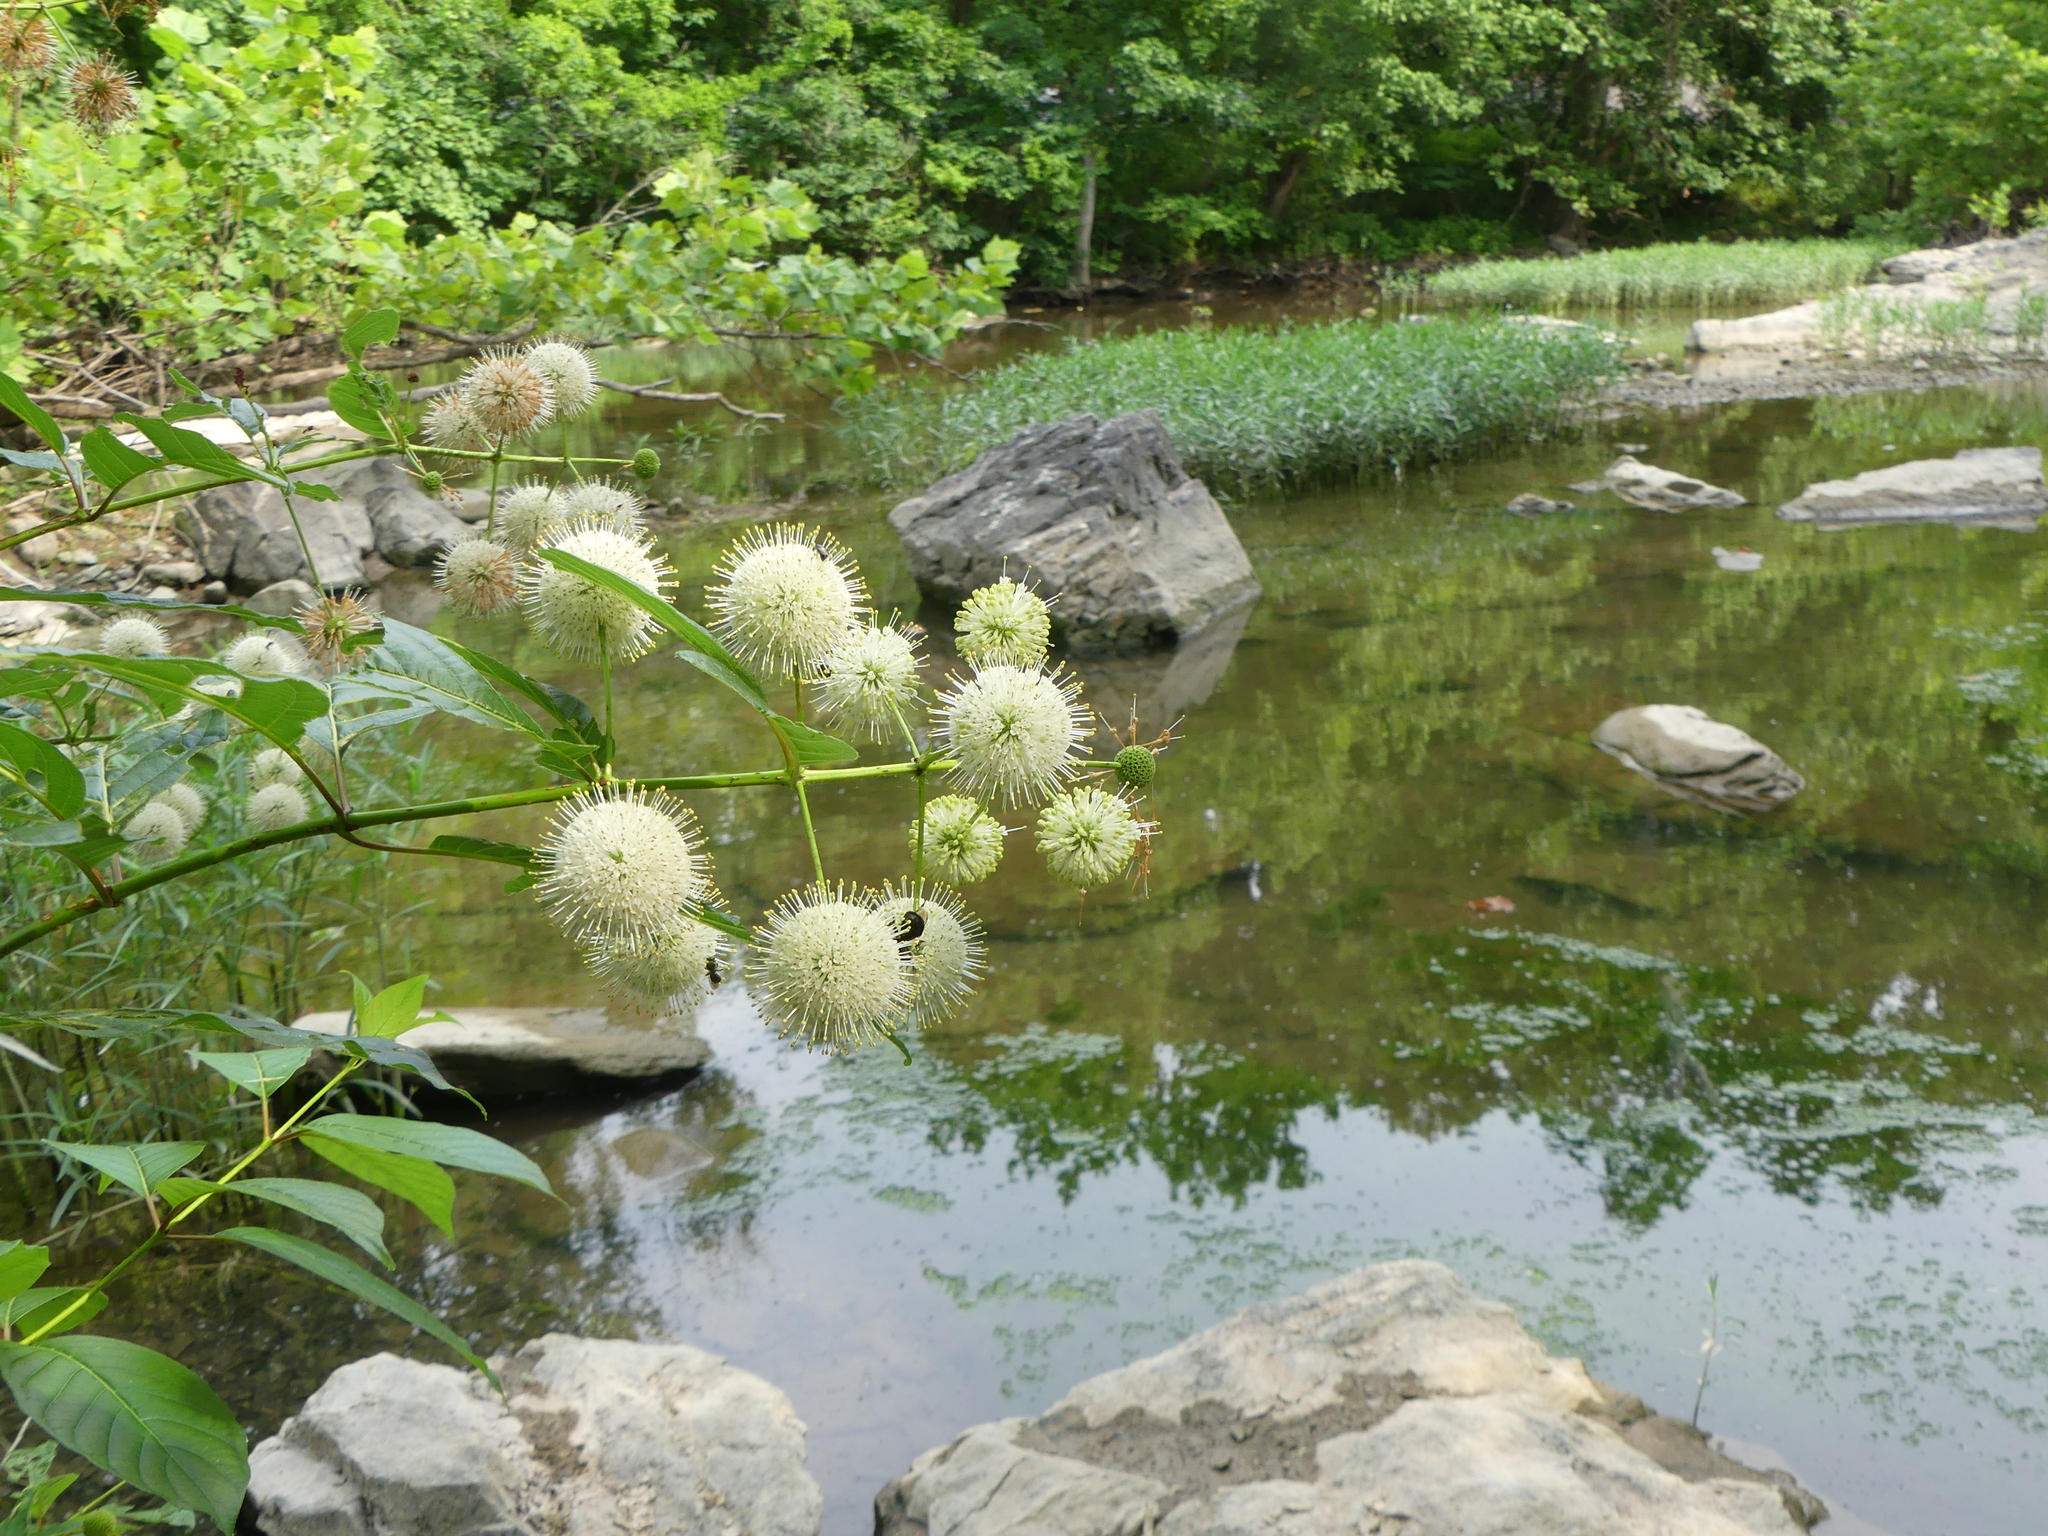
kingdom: Plantae
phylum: Tracheophyta
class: Magnoliopsida
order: Gentianales
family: Rubiaceae
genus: Cephalanthus
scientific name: Cephalanthus occidentalis
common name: Button-willow
